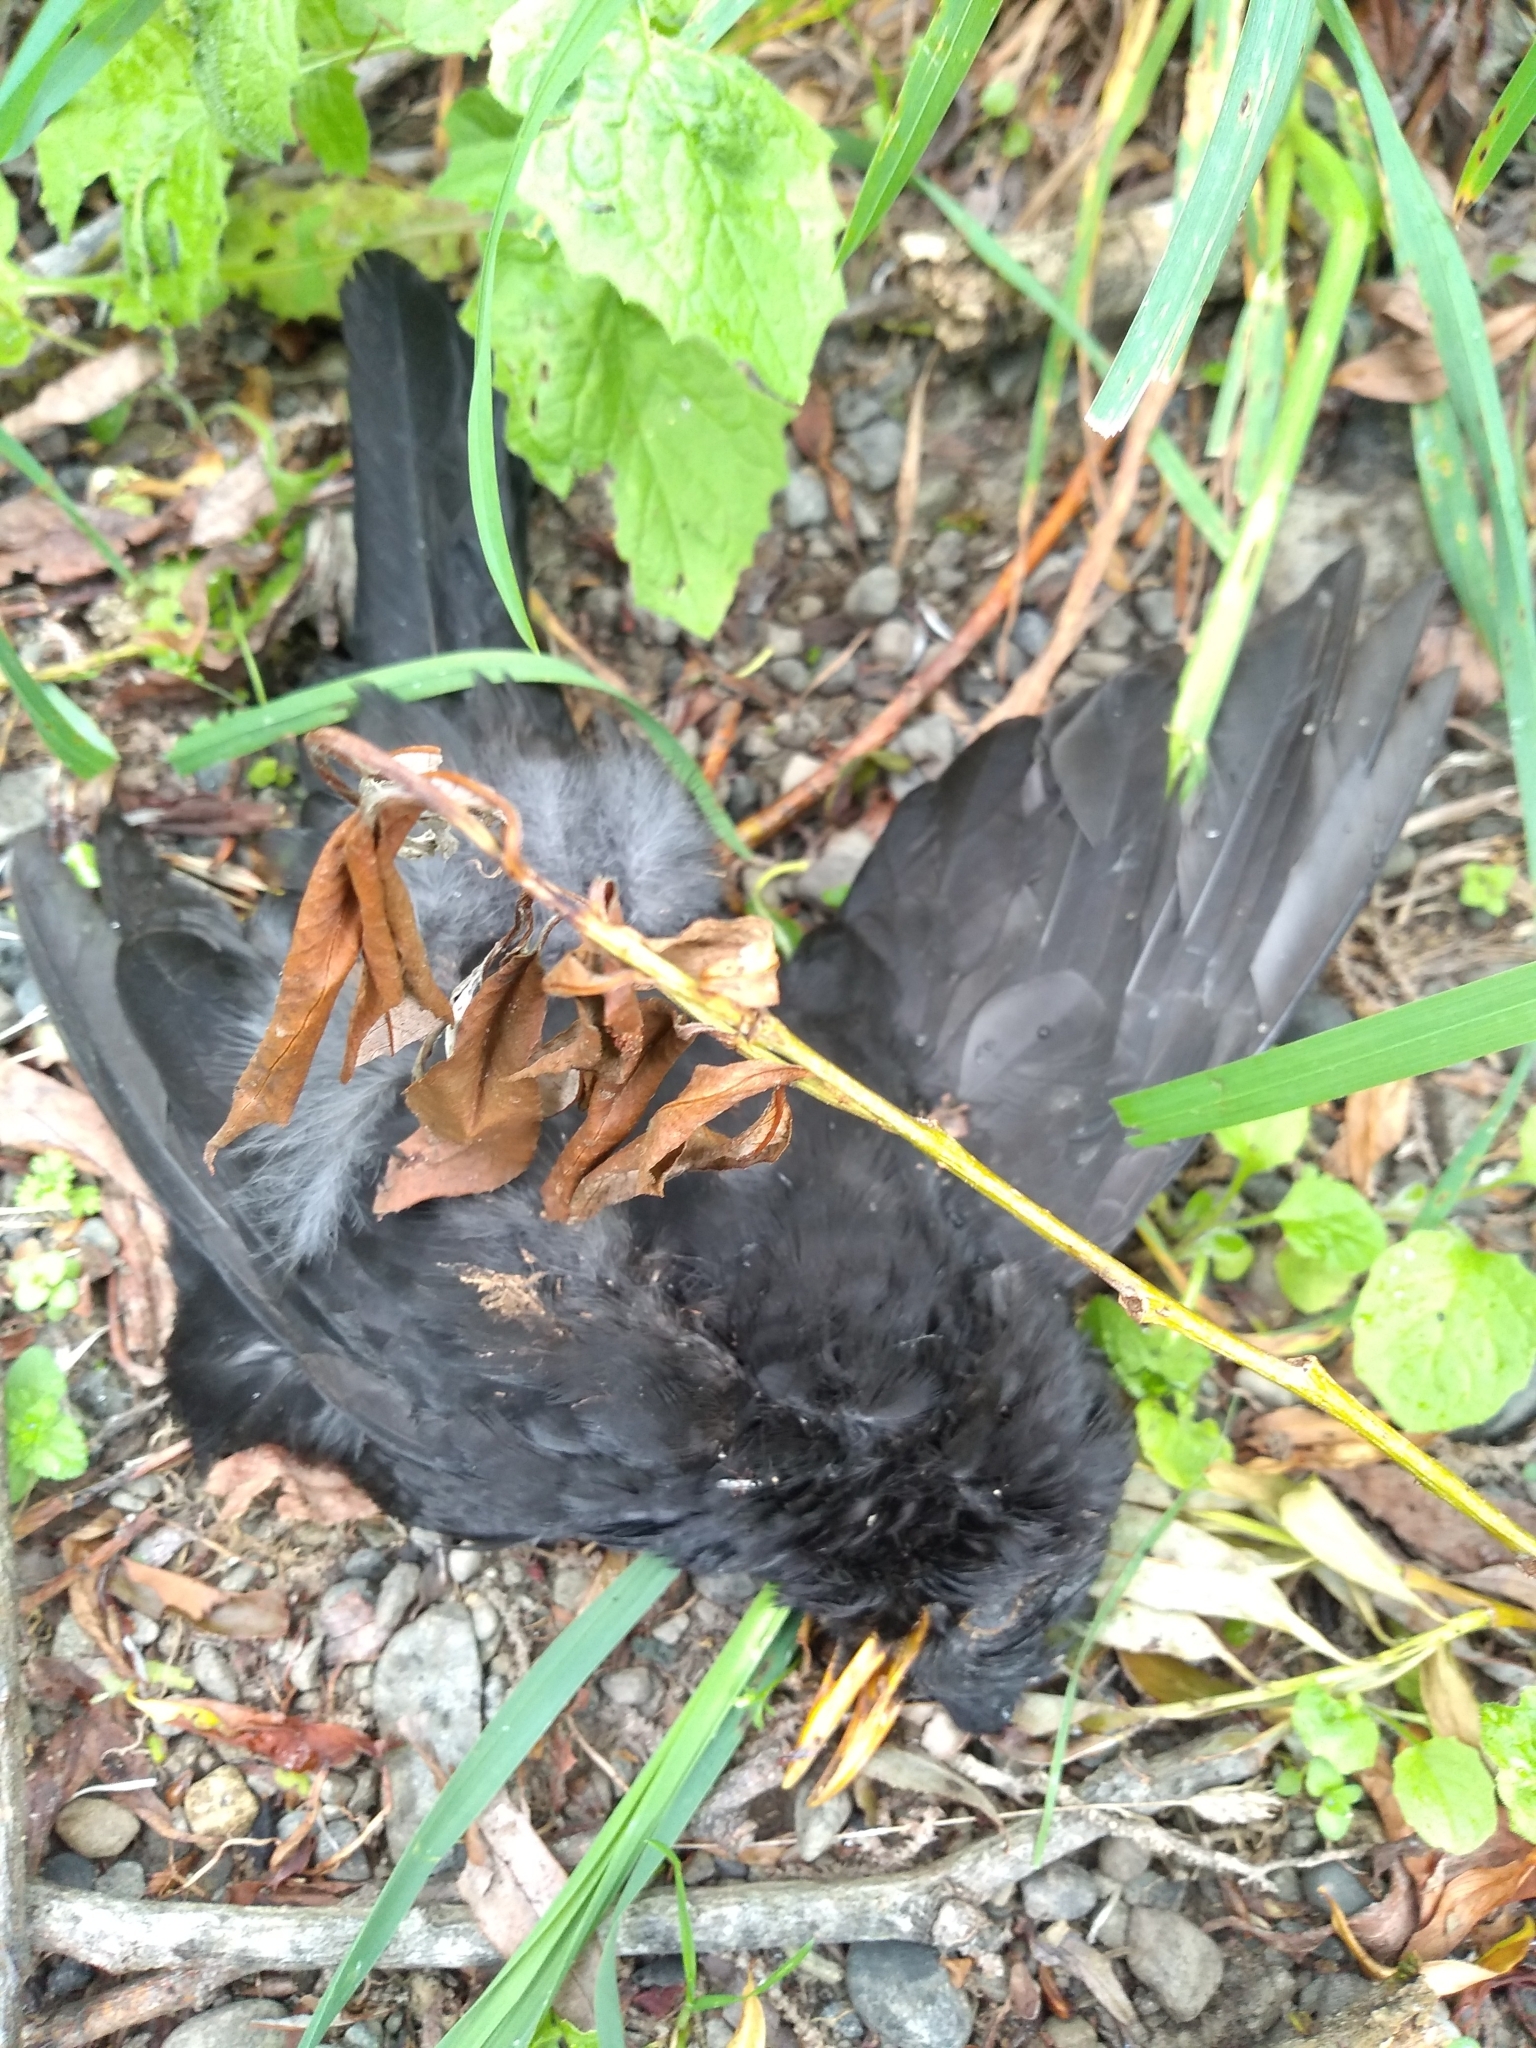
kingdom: Animalia
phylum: Chordata
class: Aves
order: Passeriformes
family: Turdidae
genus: Turdus
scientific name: Turdus merula
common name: Common blackbird
